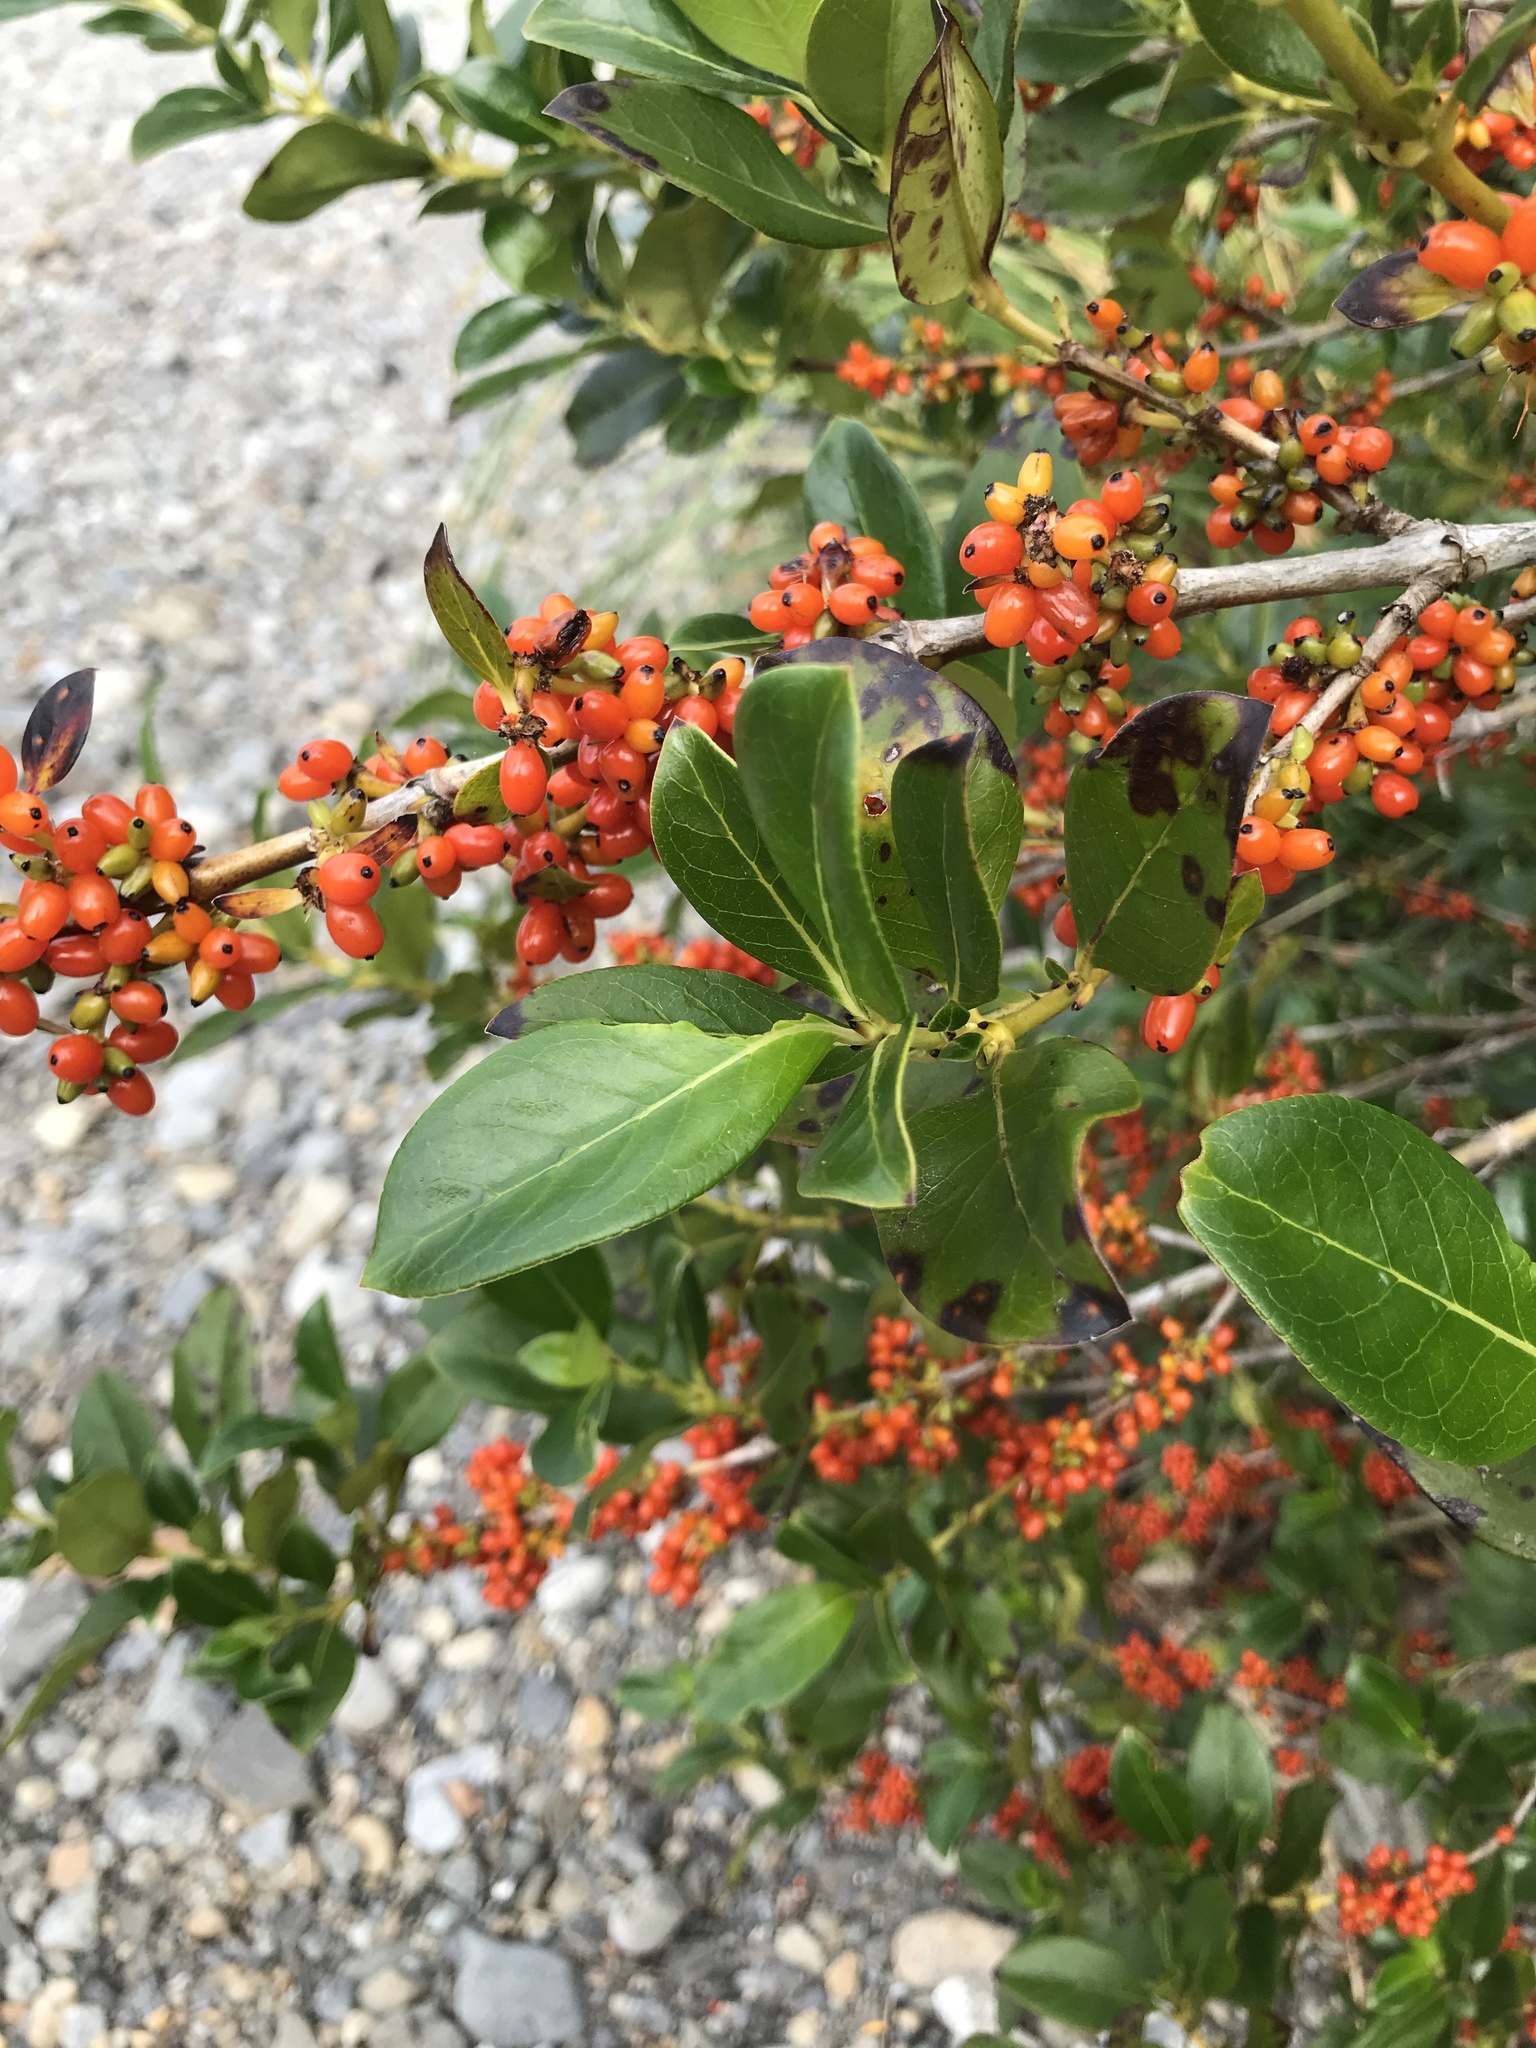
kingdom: Plantae
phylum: Tracheophyta
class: Magnoliopsida
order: Gentianales
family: Rubiaceae
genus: Coprosma
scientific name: Coprosma robusta
